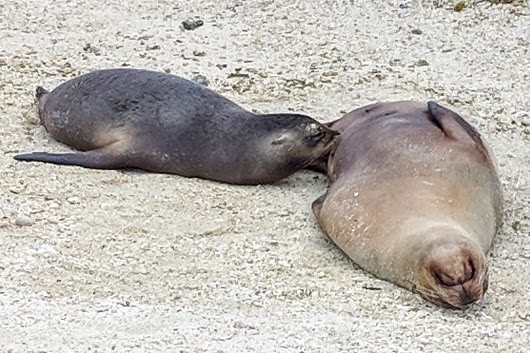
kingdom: Animalia
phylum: Chordata
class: Mammalia
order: Carnivora
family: Otariidae
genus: Zalophus
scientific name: Zalophus wollebaeki
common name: Galapagos sea lion
